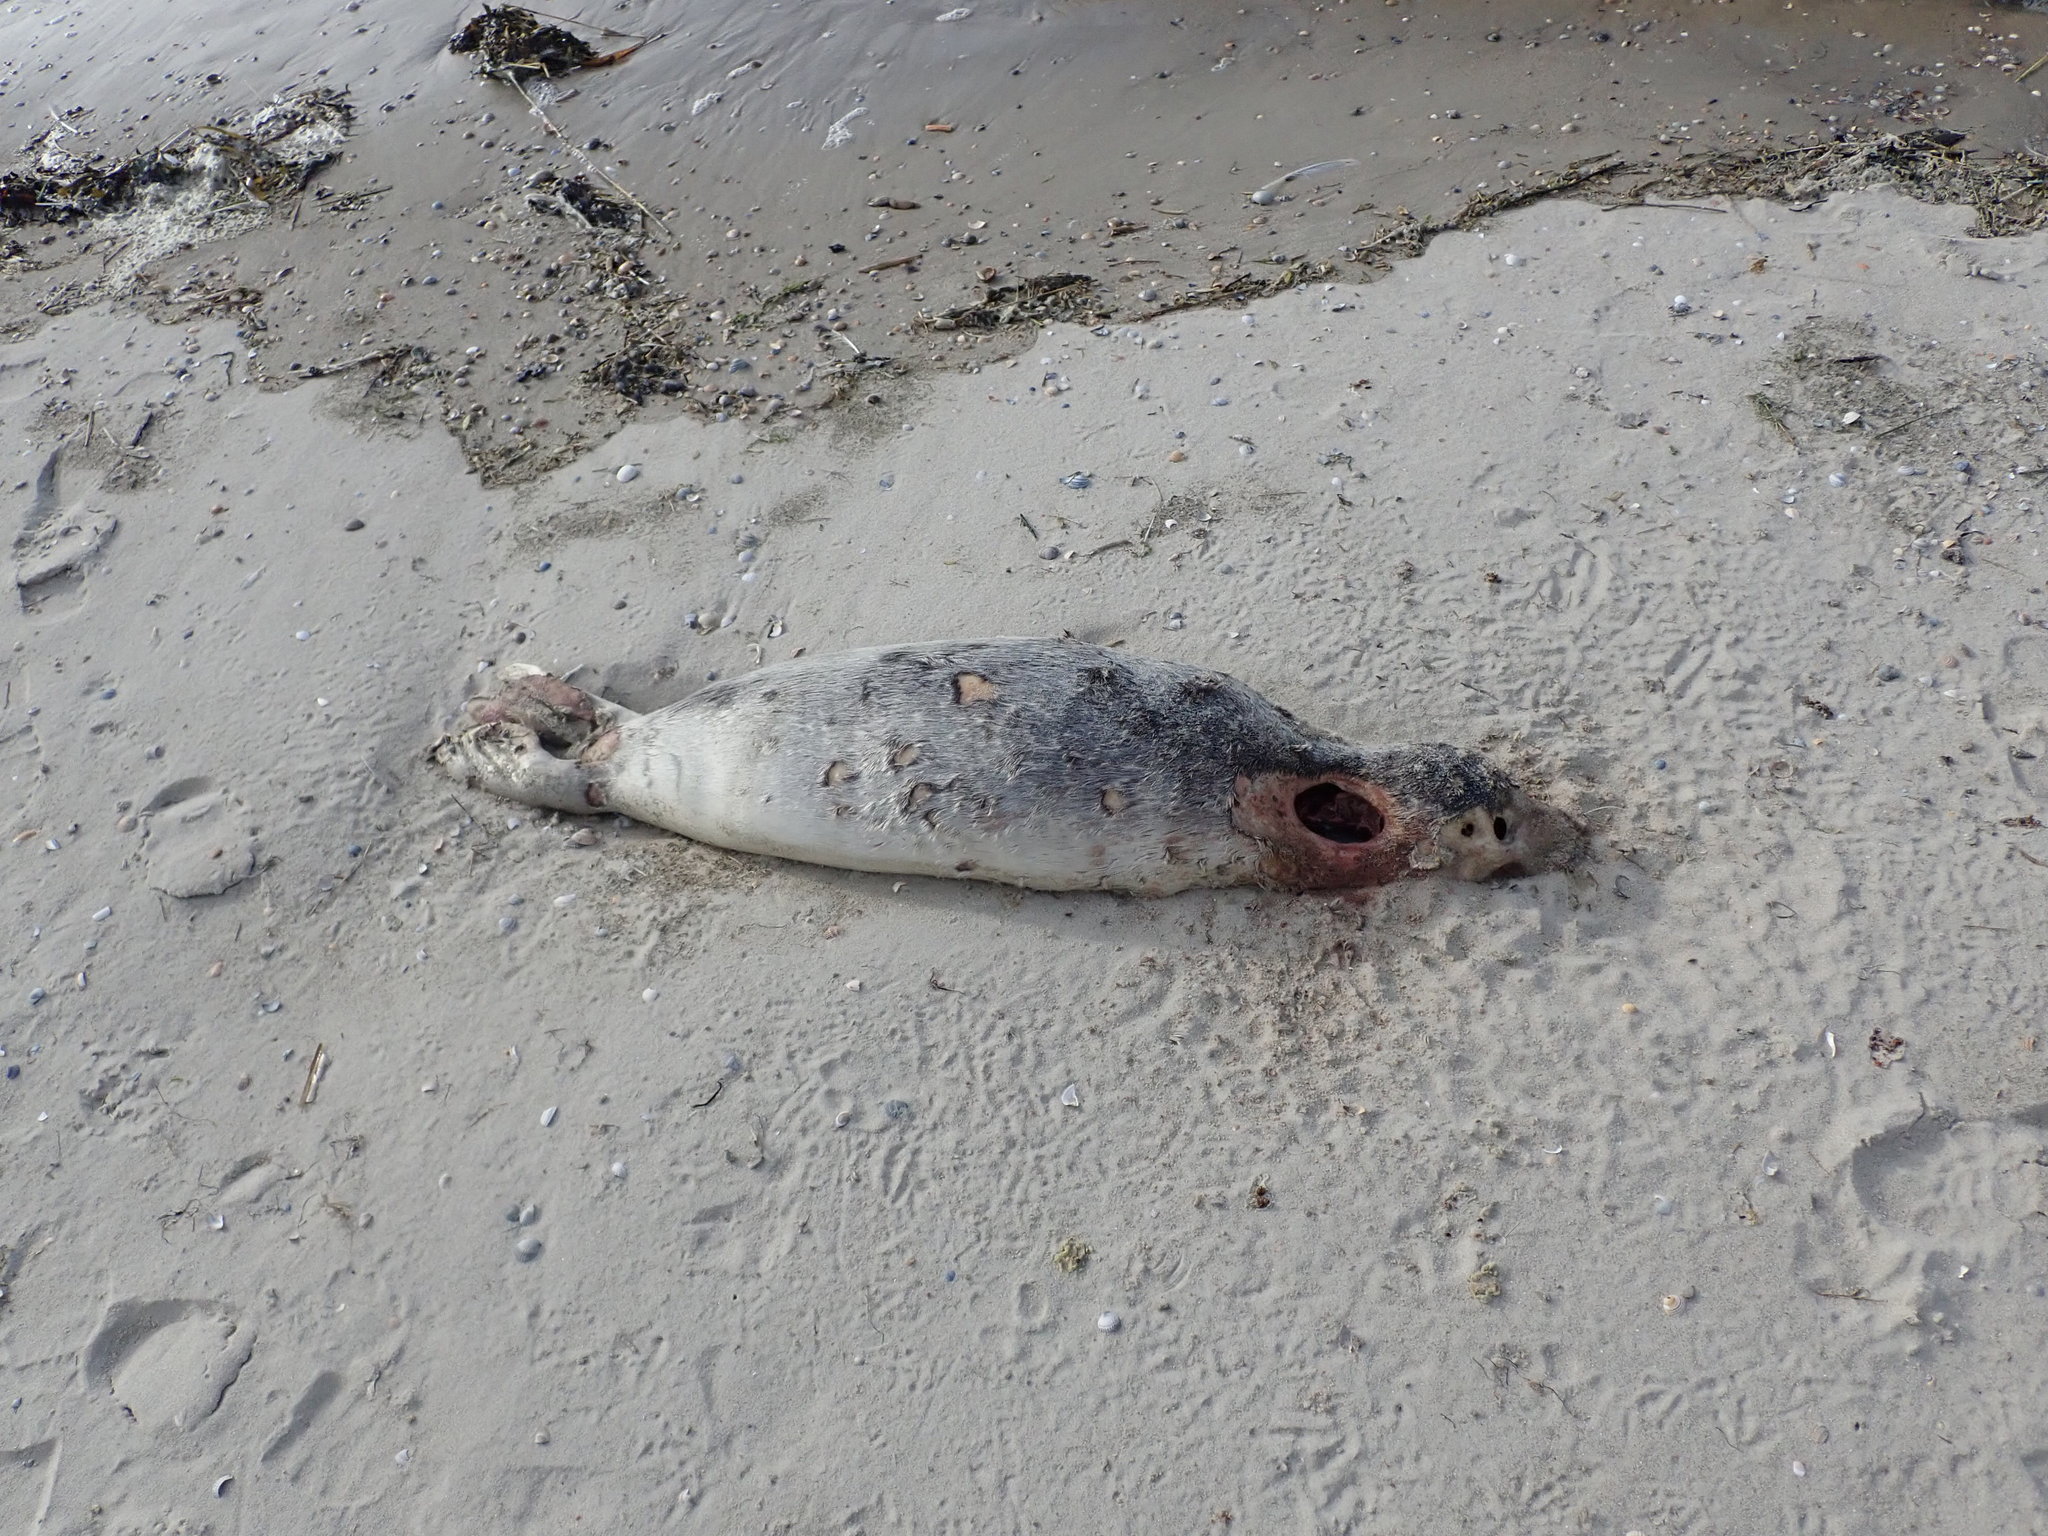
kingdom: Animalia
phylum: Chordata
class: Mammalia
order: Carnivora
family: Phocidae
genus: Phoca
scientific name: Phoca vitulina
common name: Harbor seal
